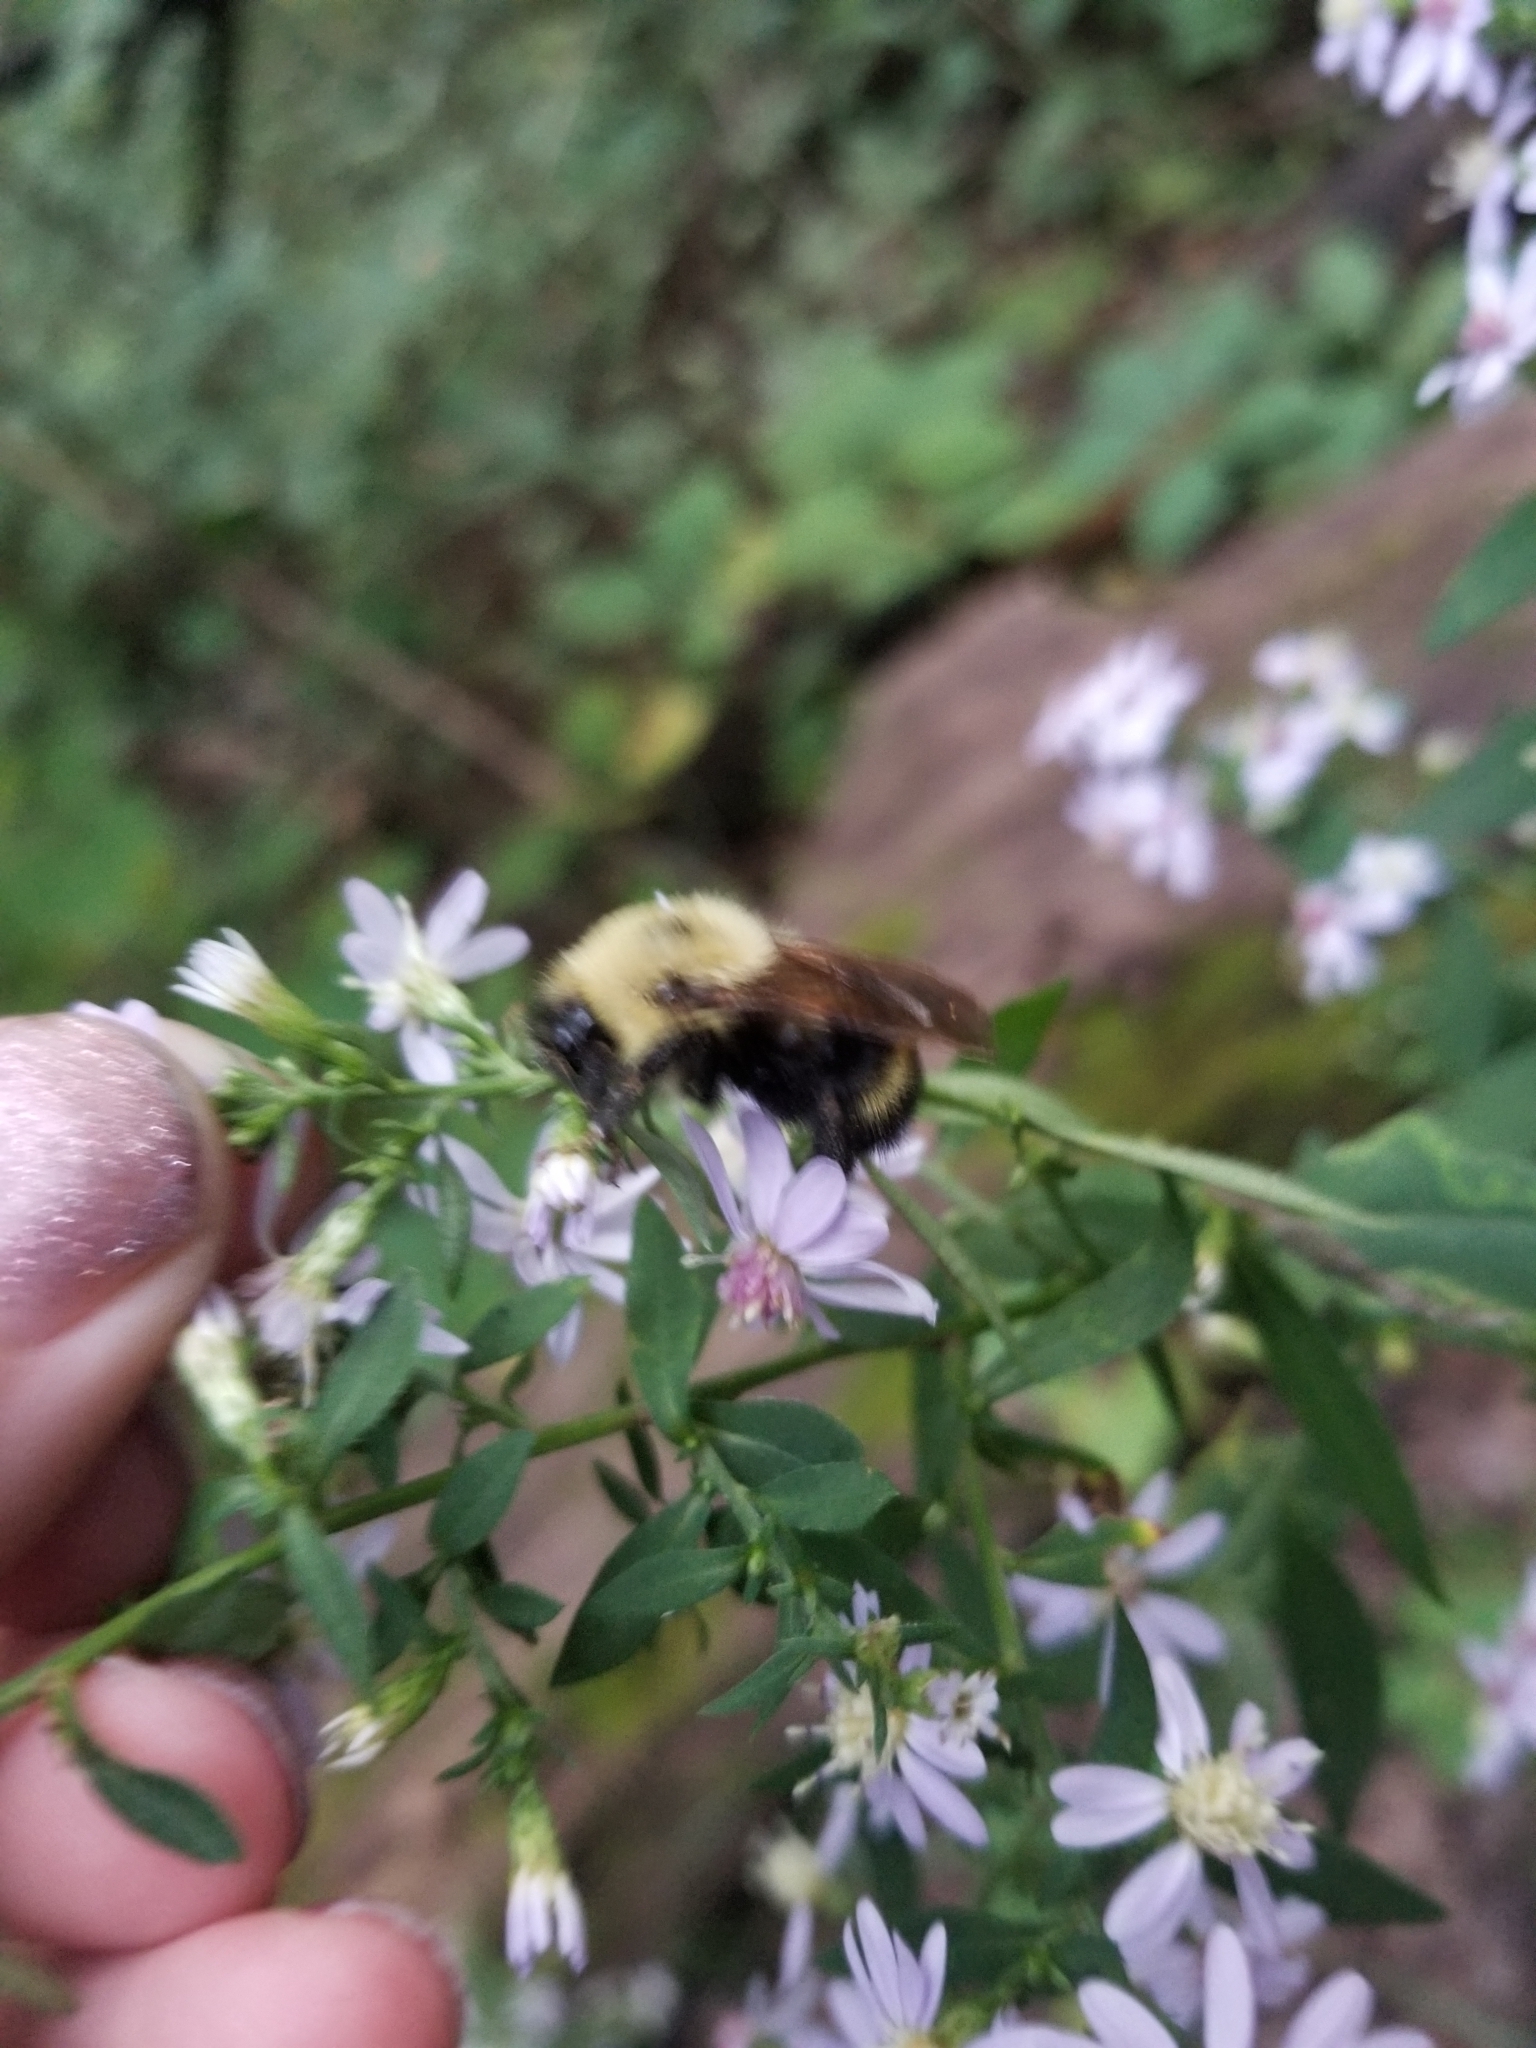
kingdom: Animalia
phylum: Arthropoda
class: Insecta
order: Hymenoptera
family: Apidae
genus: Bombus
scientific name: Bombus citrinus
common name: Lemon cuckoo bumble bee
